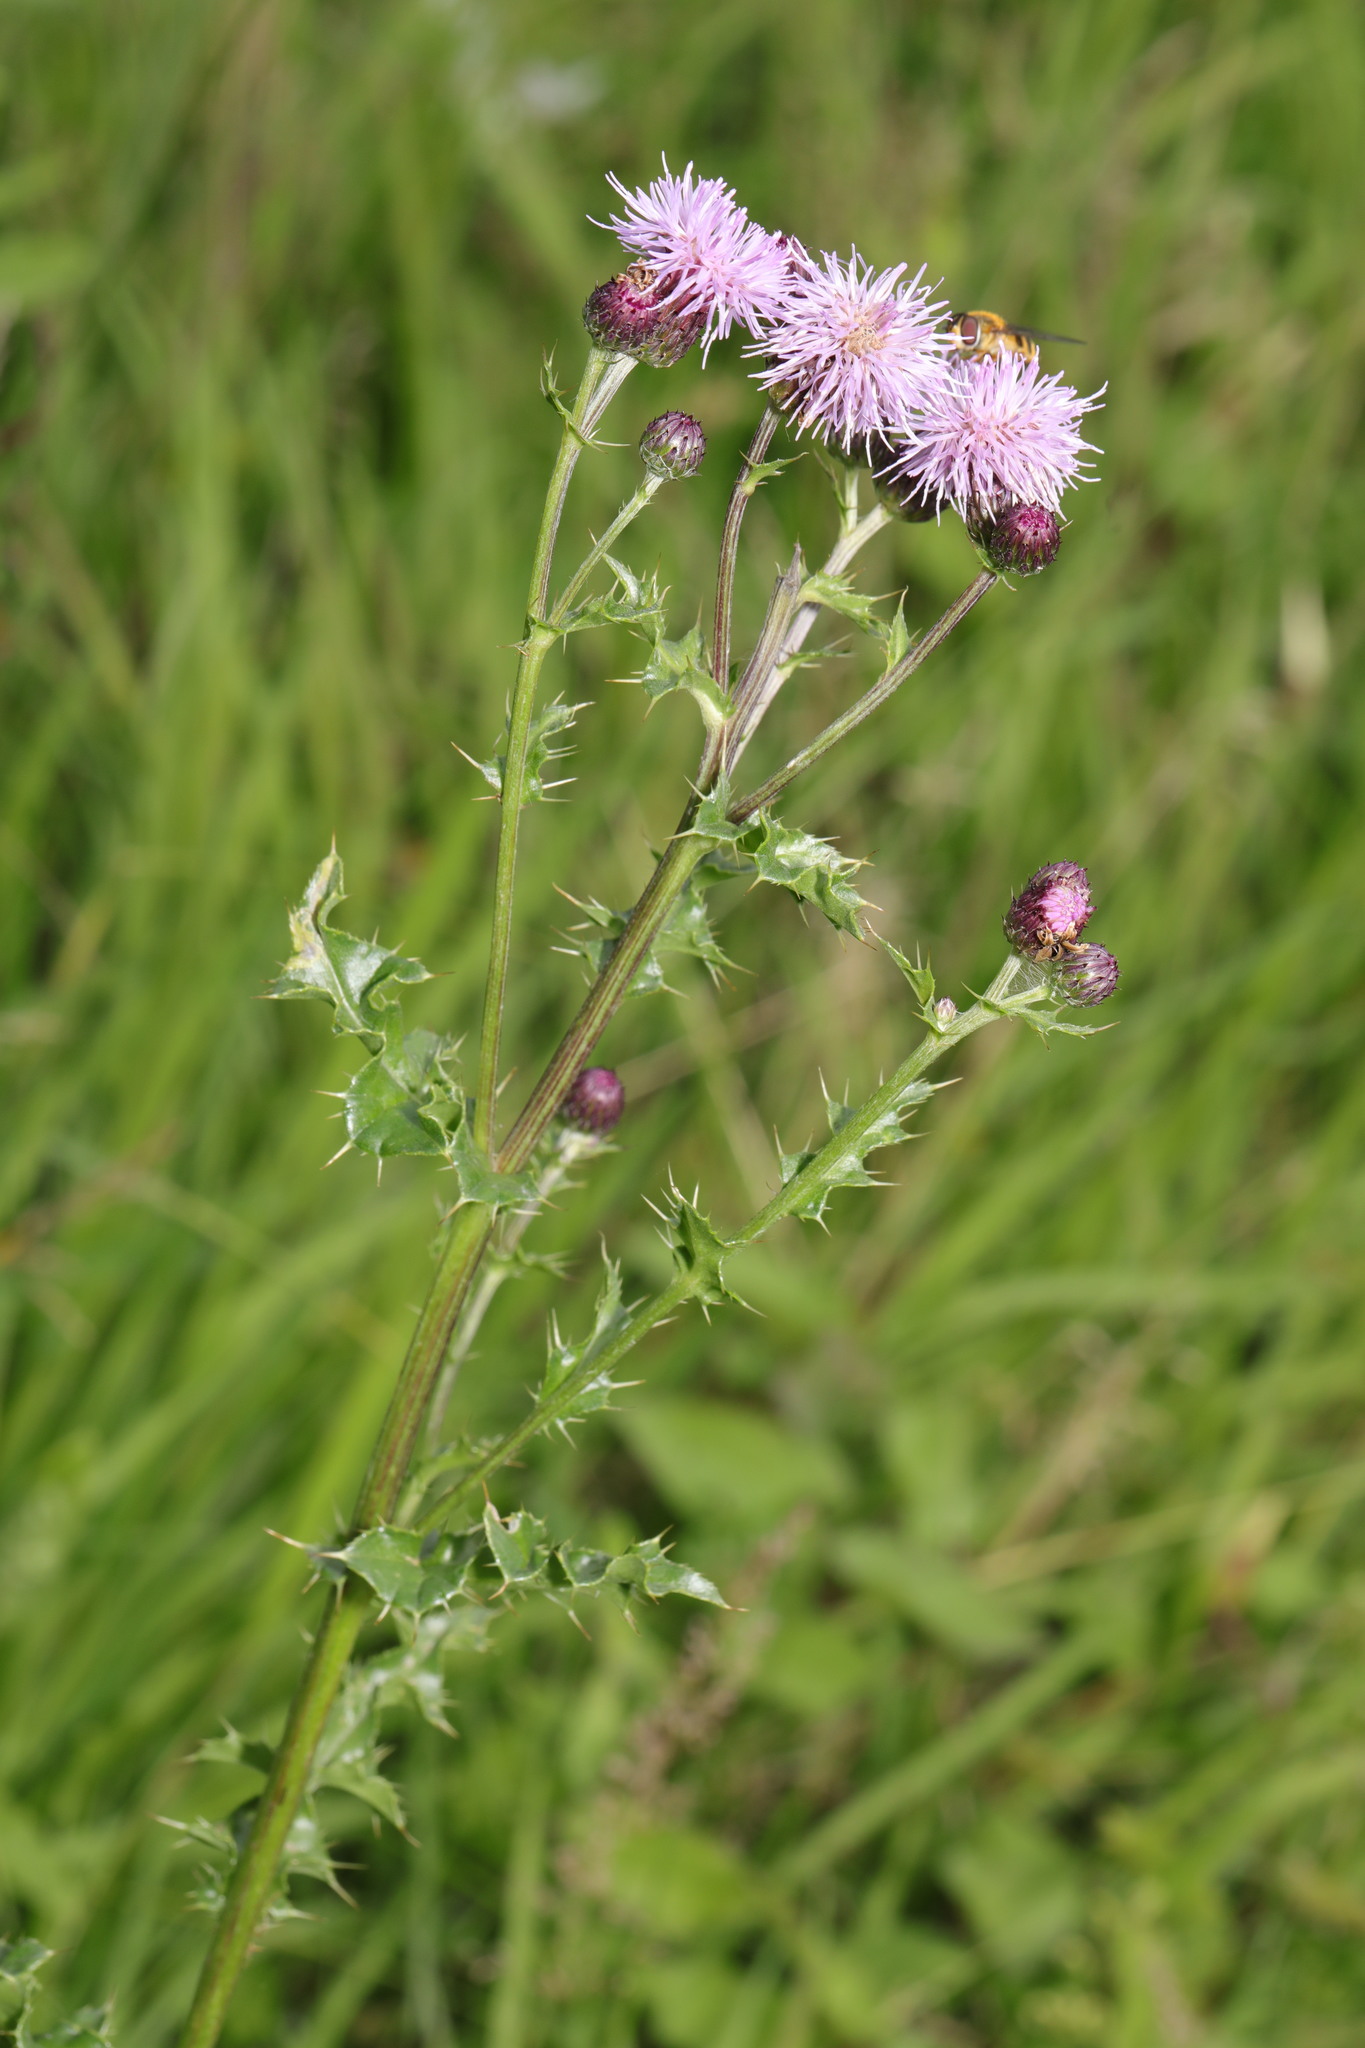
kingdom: Plantae
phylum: Tracheophyta
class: Magnoliopsida
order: Asterales
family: Asteraceae
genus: Cirsium
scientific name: Cirsium arvense
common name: Creeping thistle
